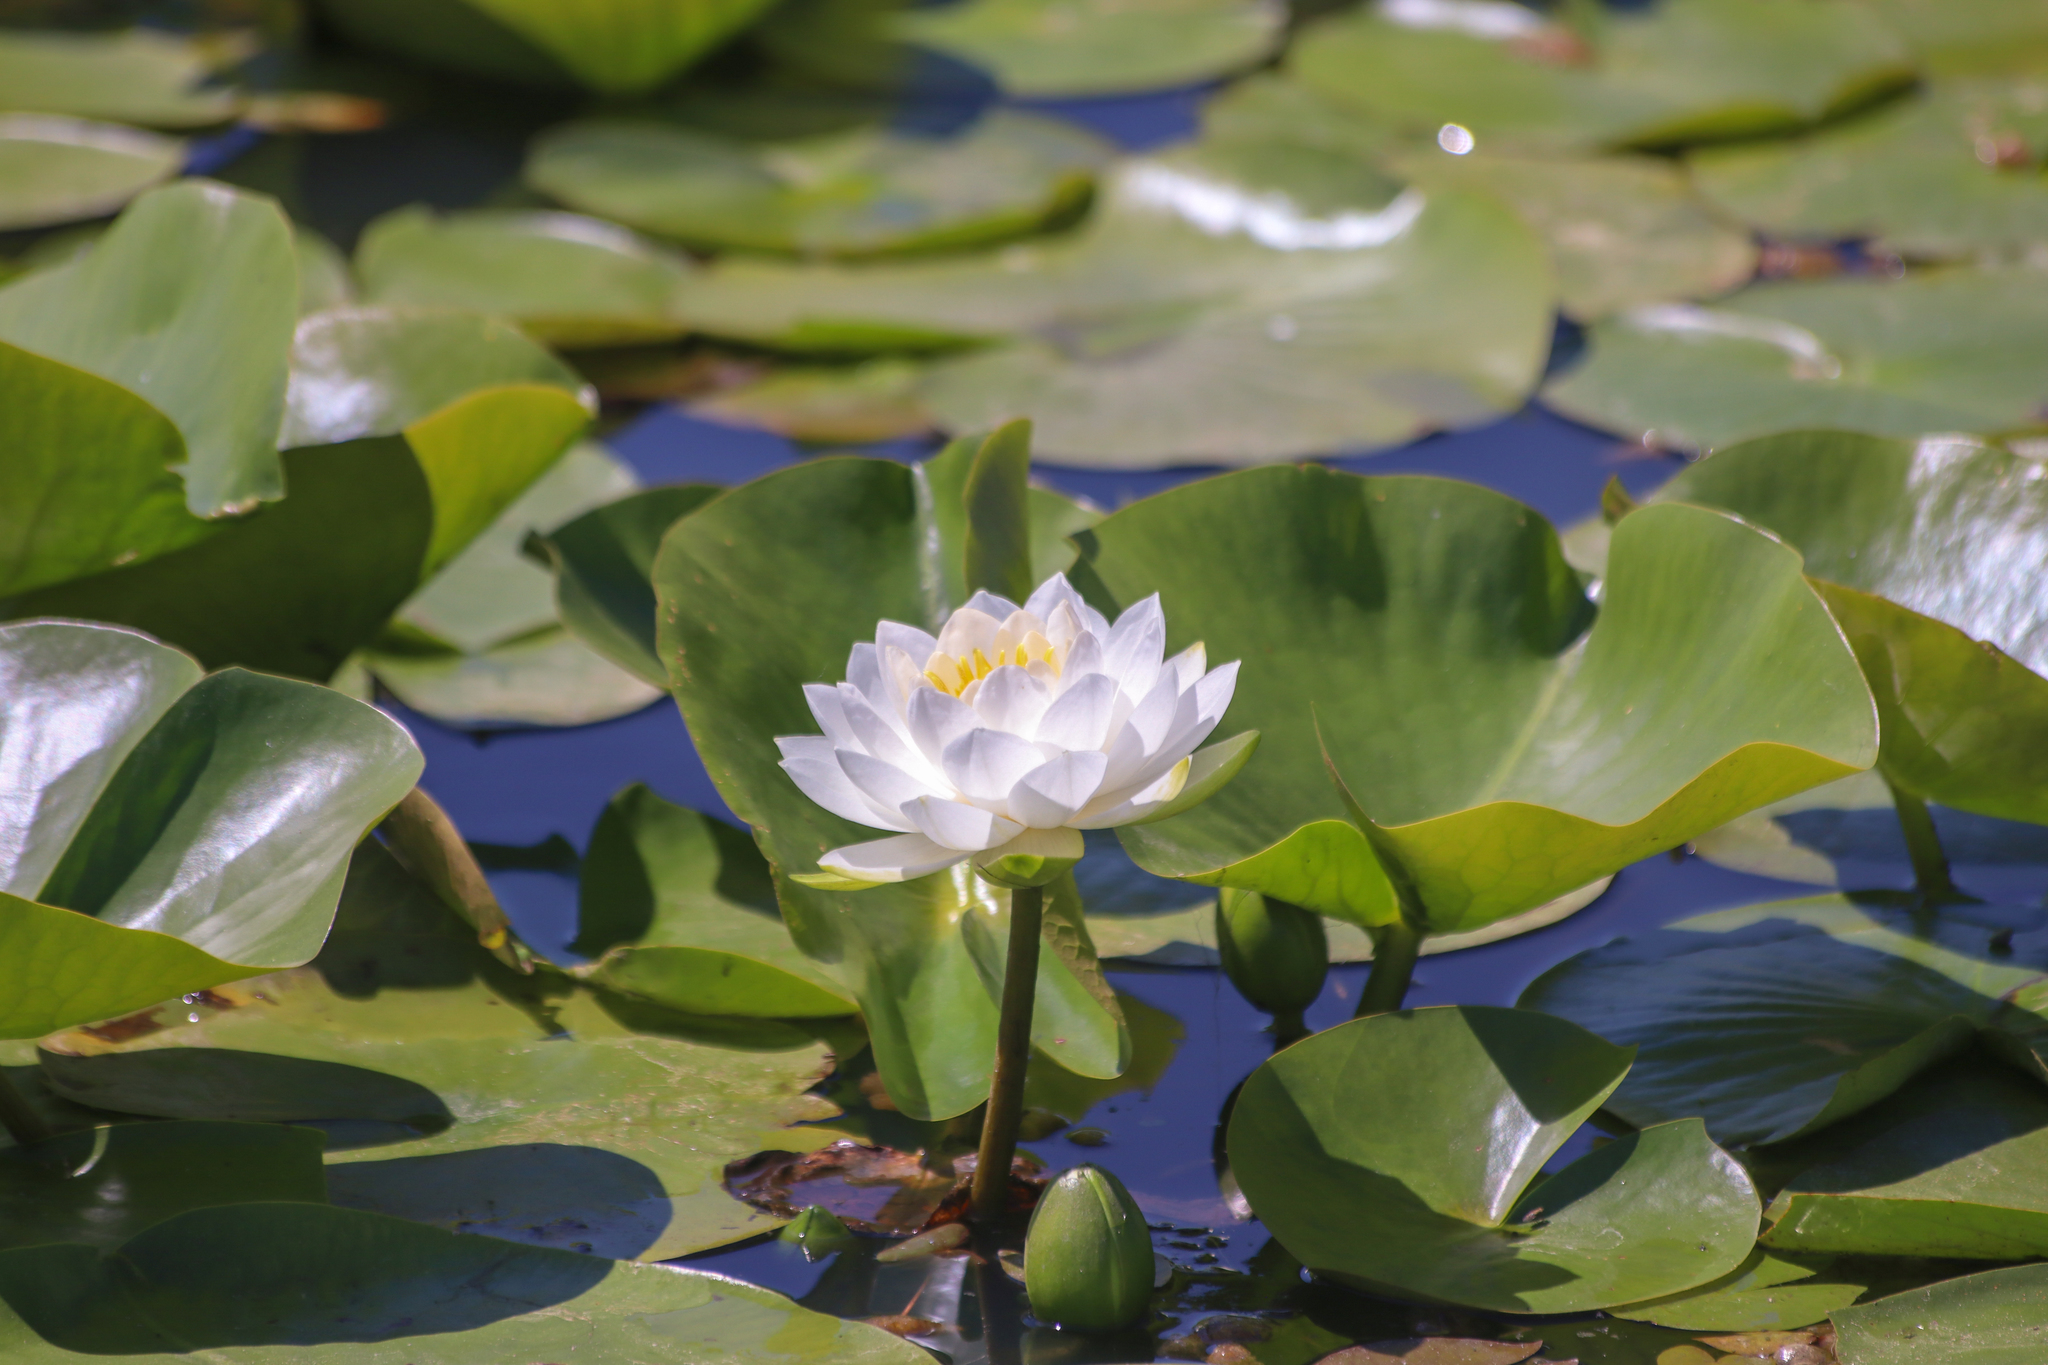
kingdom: Plantae
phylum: Tracheophyta
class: Magnoliopsida
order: Nymphaeales
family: Nymphaeaceae
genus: Nymphaea
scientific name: Nymphaea odorata
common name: Fragrant water-lily
